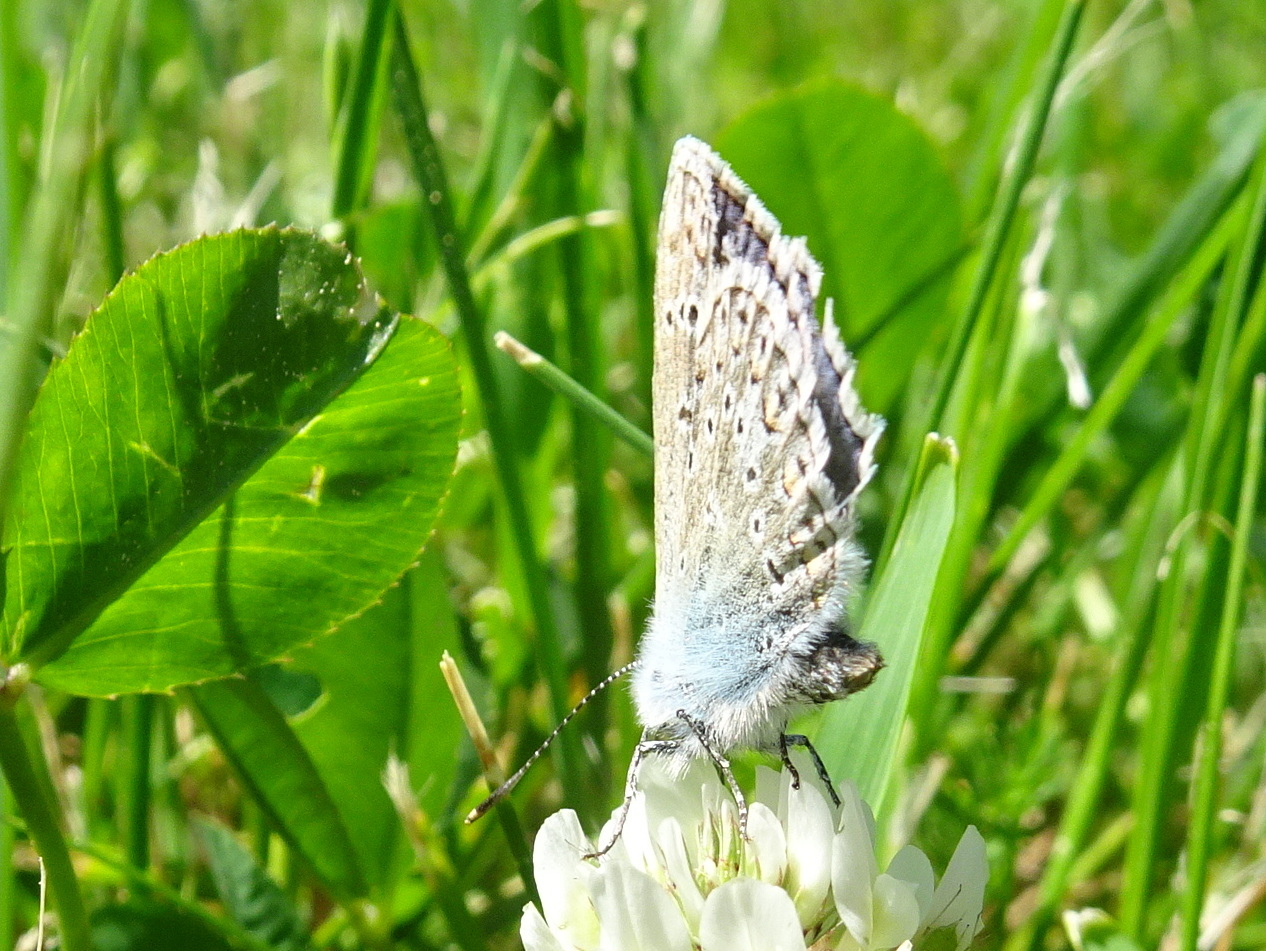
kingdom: Animalia
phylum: Arthropoda
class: Insecta
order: Lepidoptera
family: Lycaenidae
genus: Polyommatus
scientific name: Polyommatus icarus
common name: Common blue
